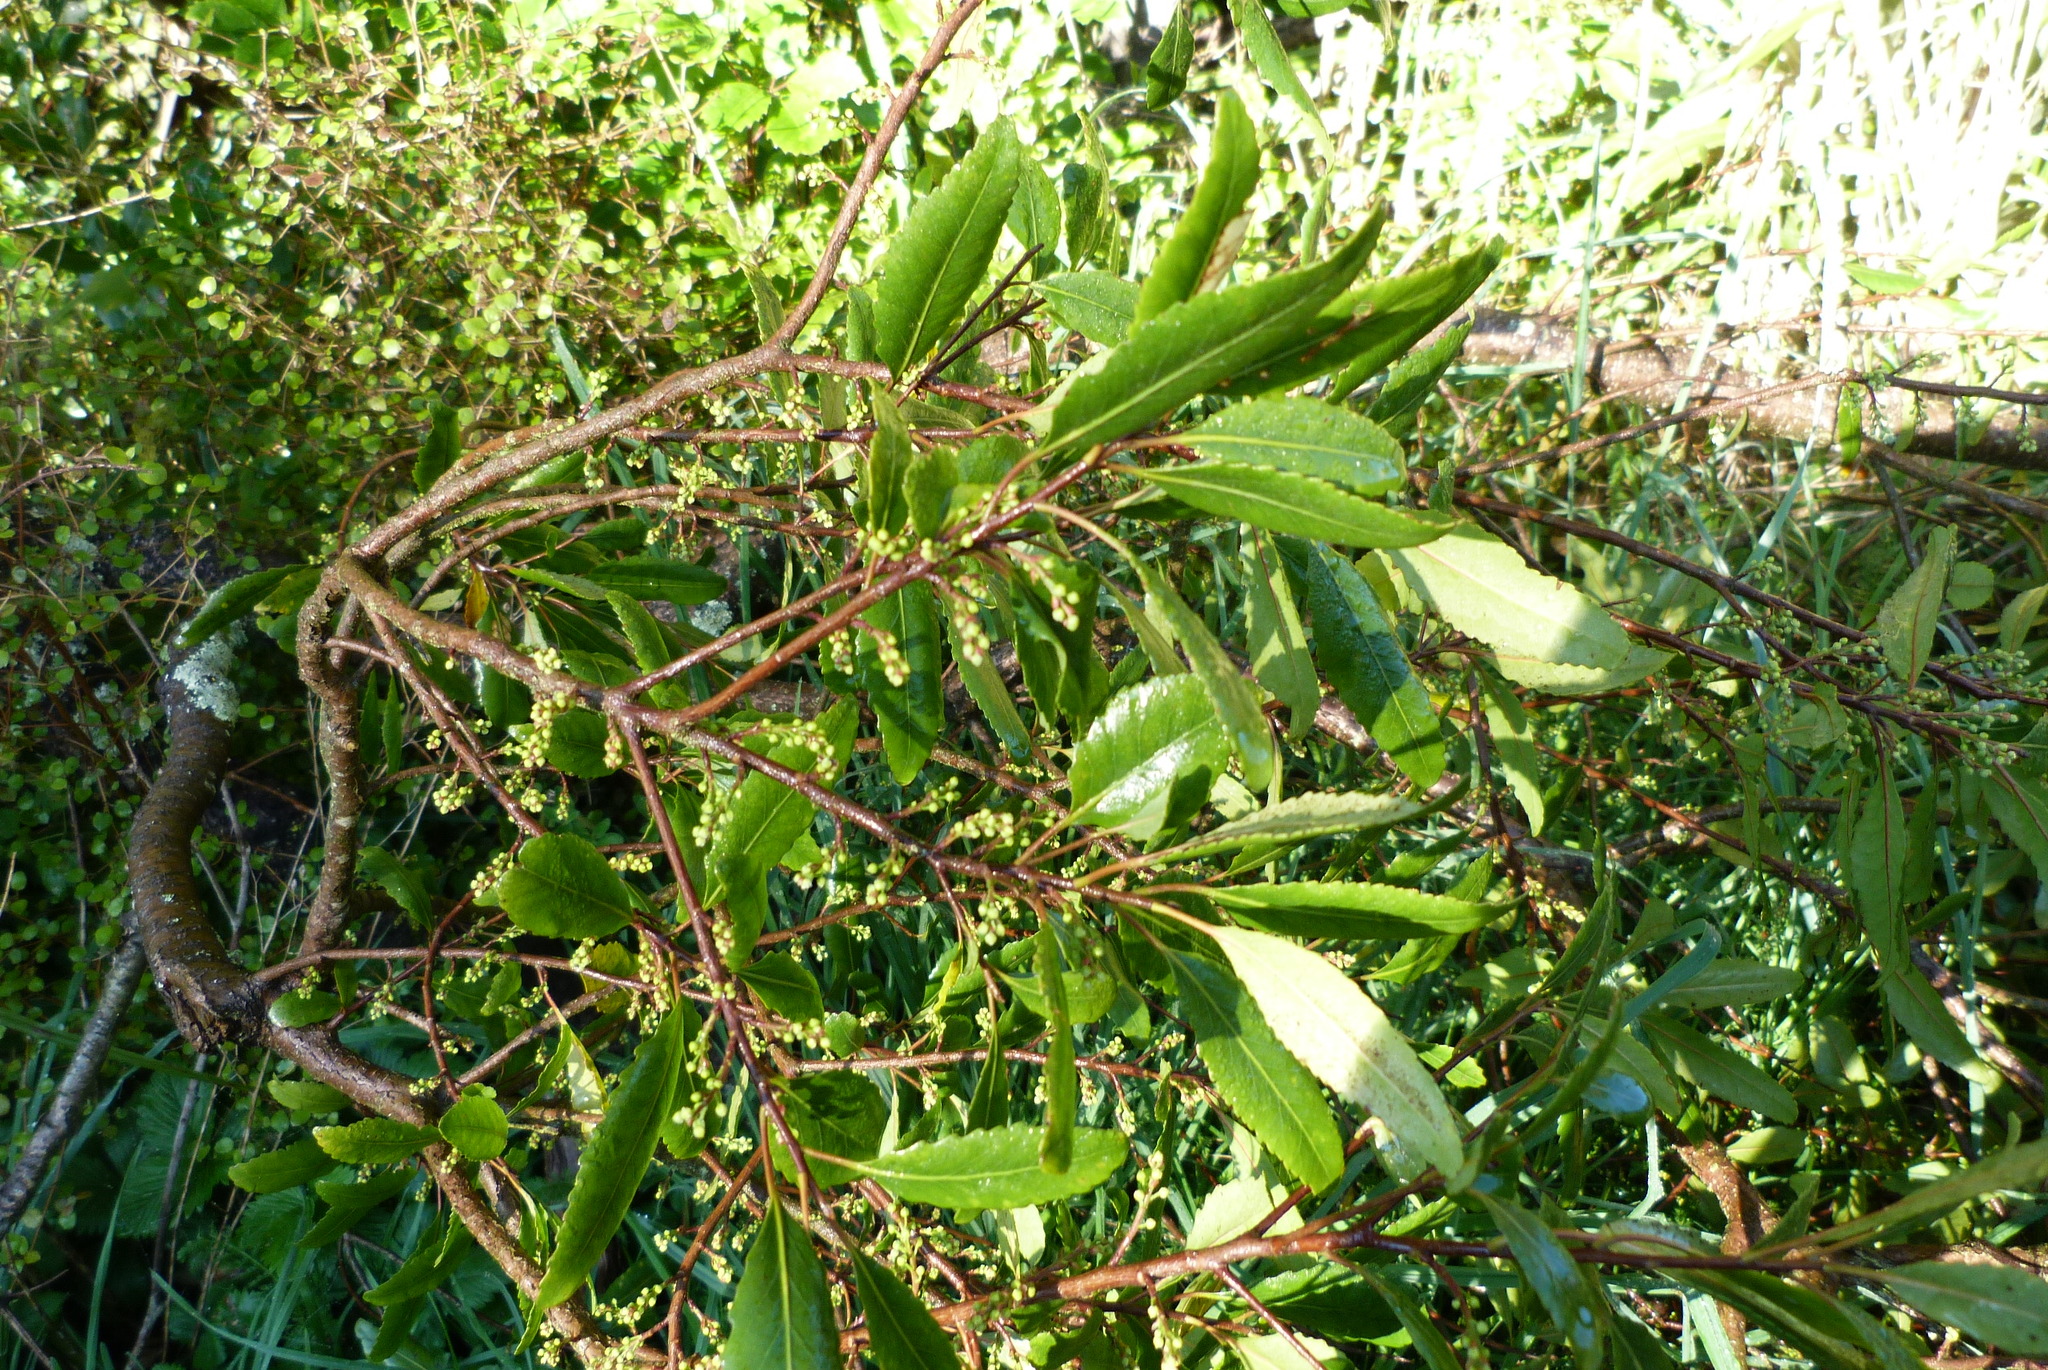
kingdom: Plantae
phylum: Tracheophyta
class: Magnoliopsida
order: Oxalidales
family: Elaeocarpaceae
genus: Elaeocarpus
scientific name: Elaeocarpus hookerianus
